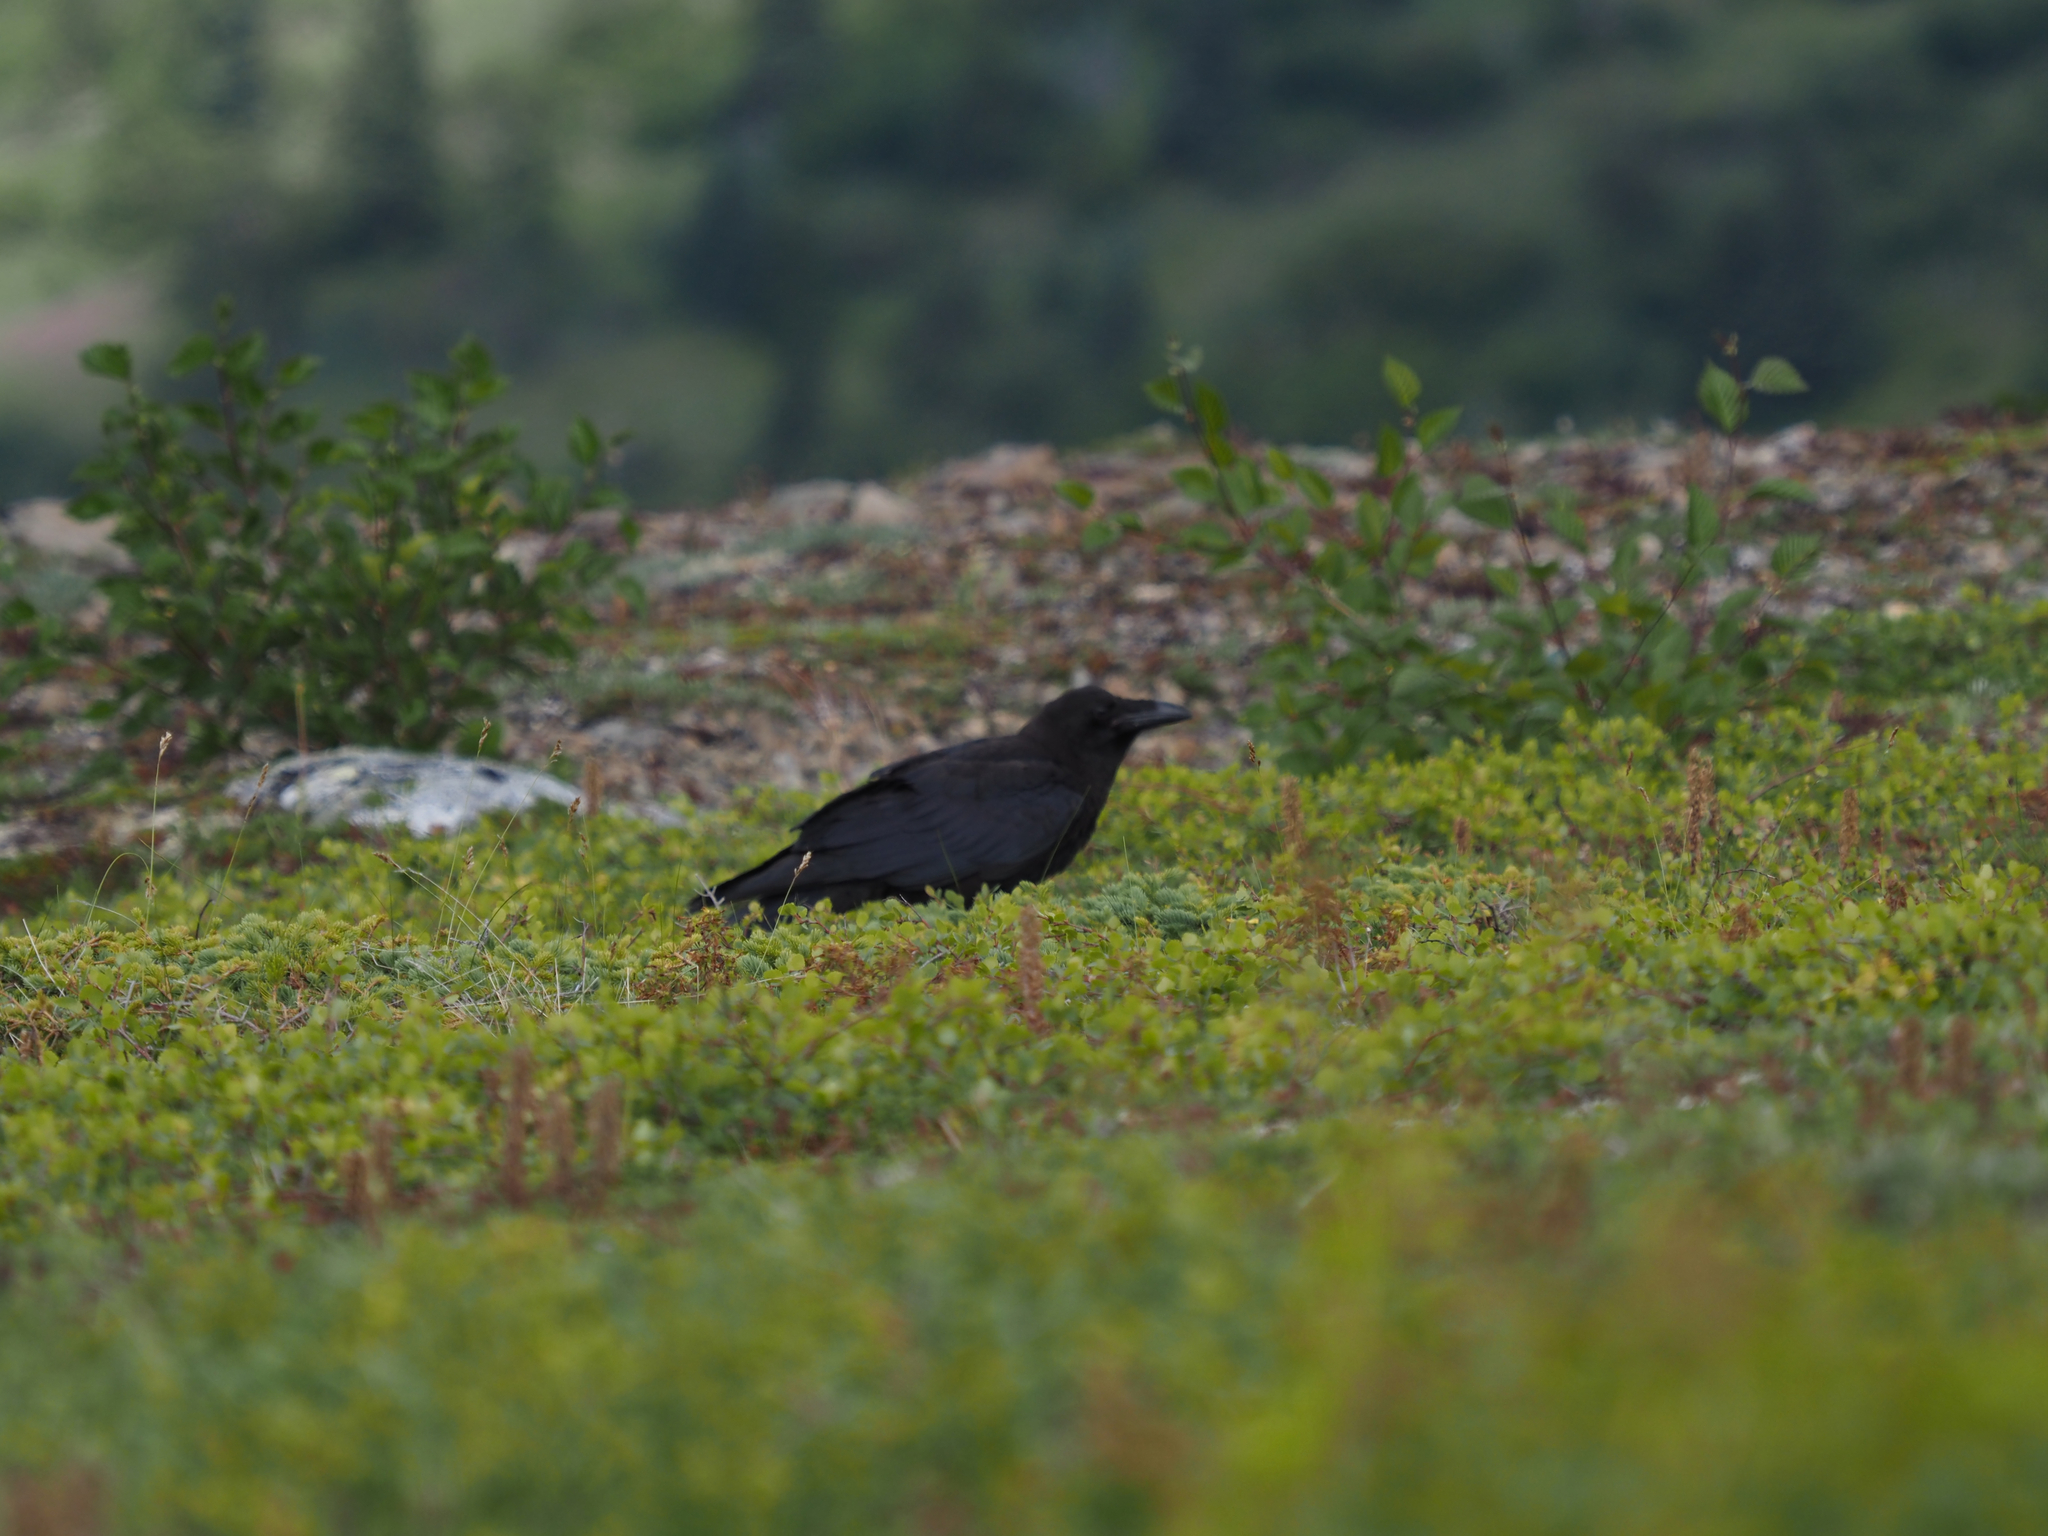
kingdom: Animalia
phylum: Chordata
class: Aves
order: Passeriformes
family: Corvidae
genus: Corvus
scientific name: Corvus corax
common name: Common raven
